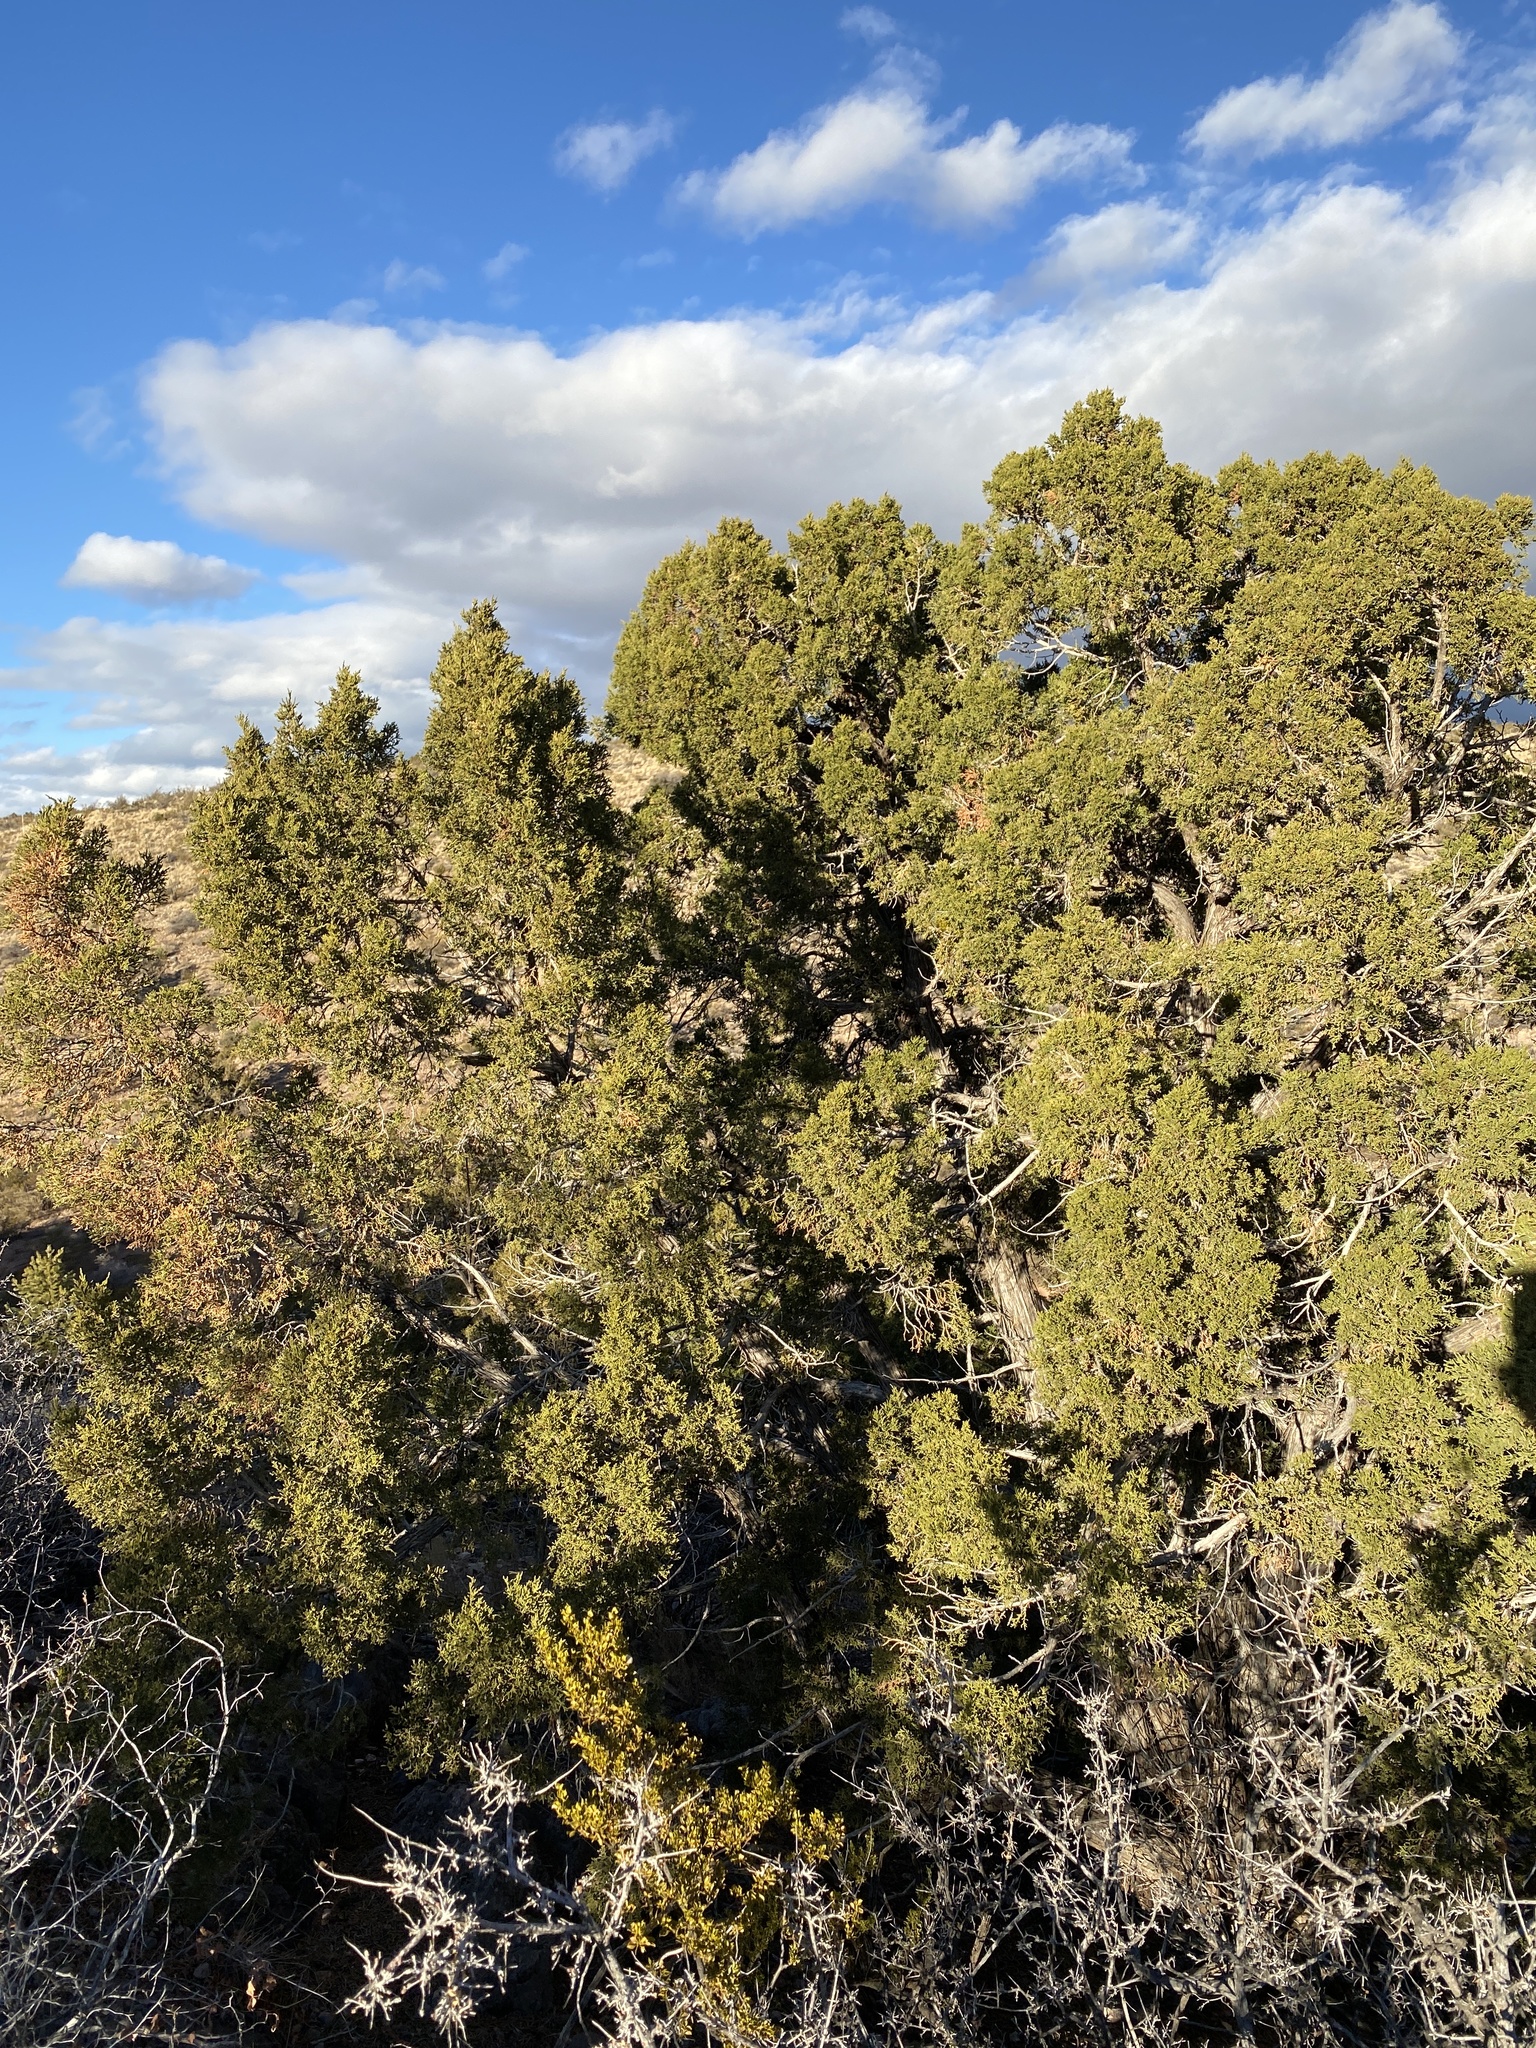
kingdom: Plantae
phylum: Tracheophyta
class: Pinopsida
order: Pinales
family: Cupressaceae
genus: Juniperus
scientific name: Juniperus monosperma
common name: One-seed juniper
